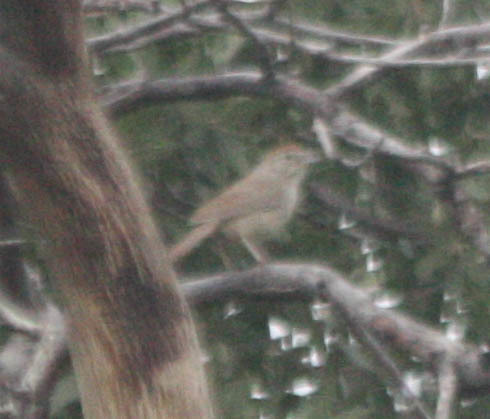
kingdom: Animalia
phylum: Chordata
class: Aves
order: Passeriformes
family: Passerellidae
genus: Aimophila
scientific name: Aimophila ruficeps
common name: Rufous-crowned sparrow
